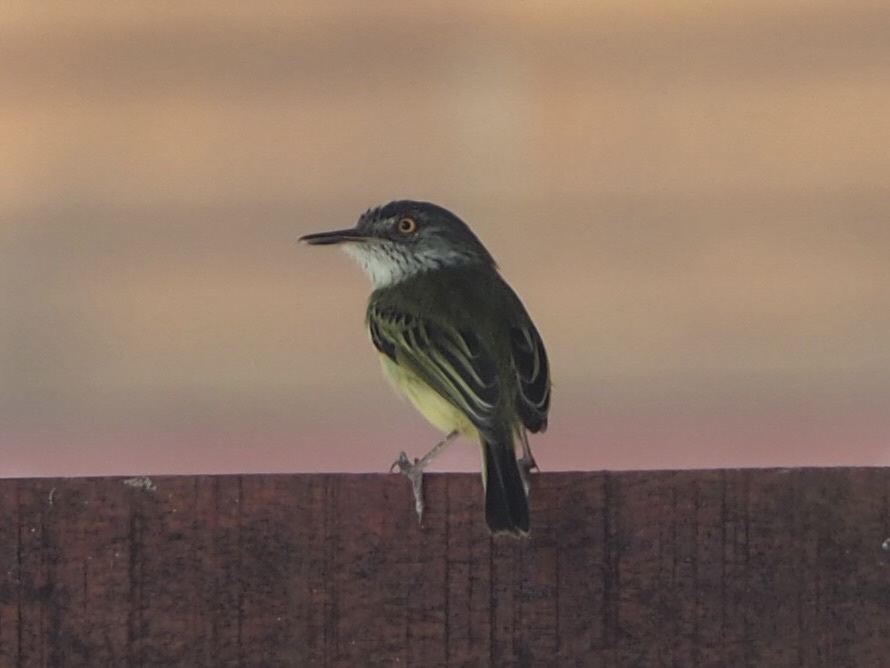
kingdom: Animalia
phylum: Chordata
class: Aves
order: Passeriformes
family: Tyrannidae
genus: Todirostrum
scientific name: Todirostrum maculatum
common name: Spotted tody-flycatcher
